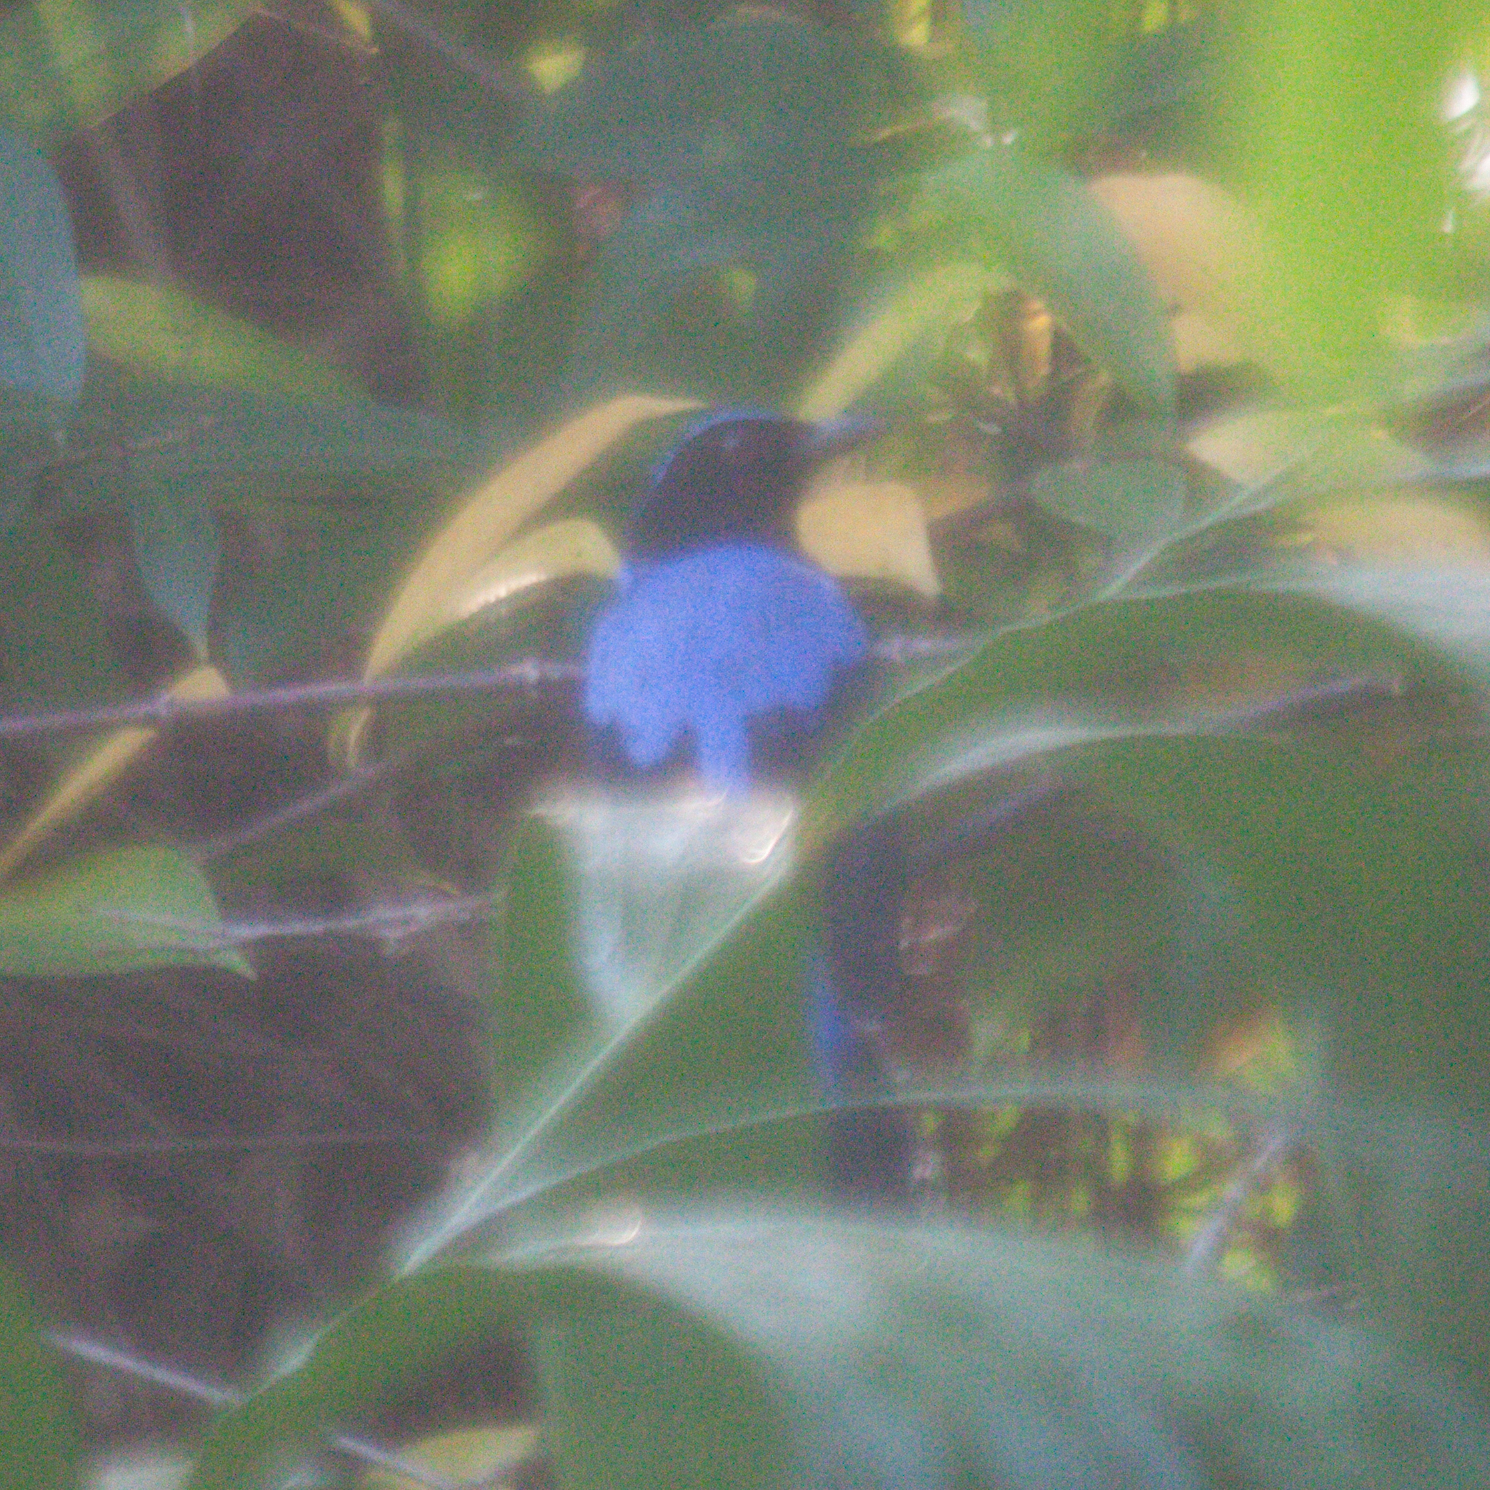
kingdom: Animalia
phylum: Chordata
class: Aves
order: Passeriformes
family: Irenidae
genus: Irena
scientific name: Irena puella
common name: Asian fairy-bluebird
